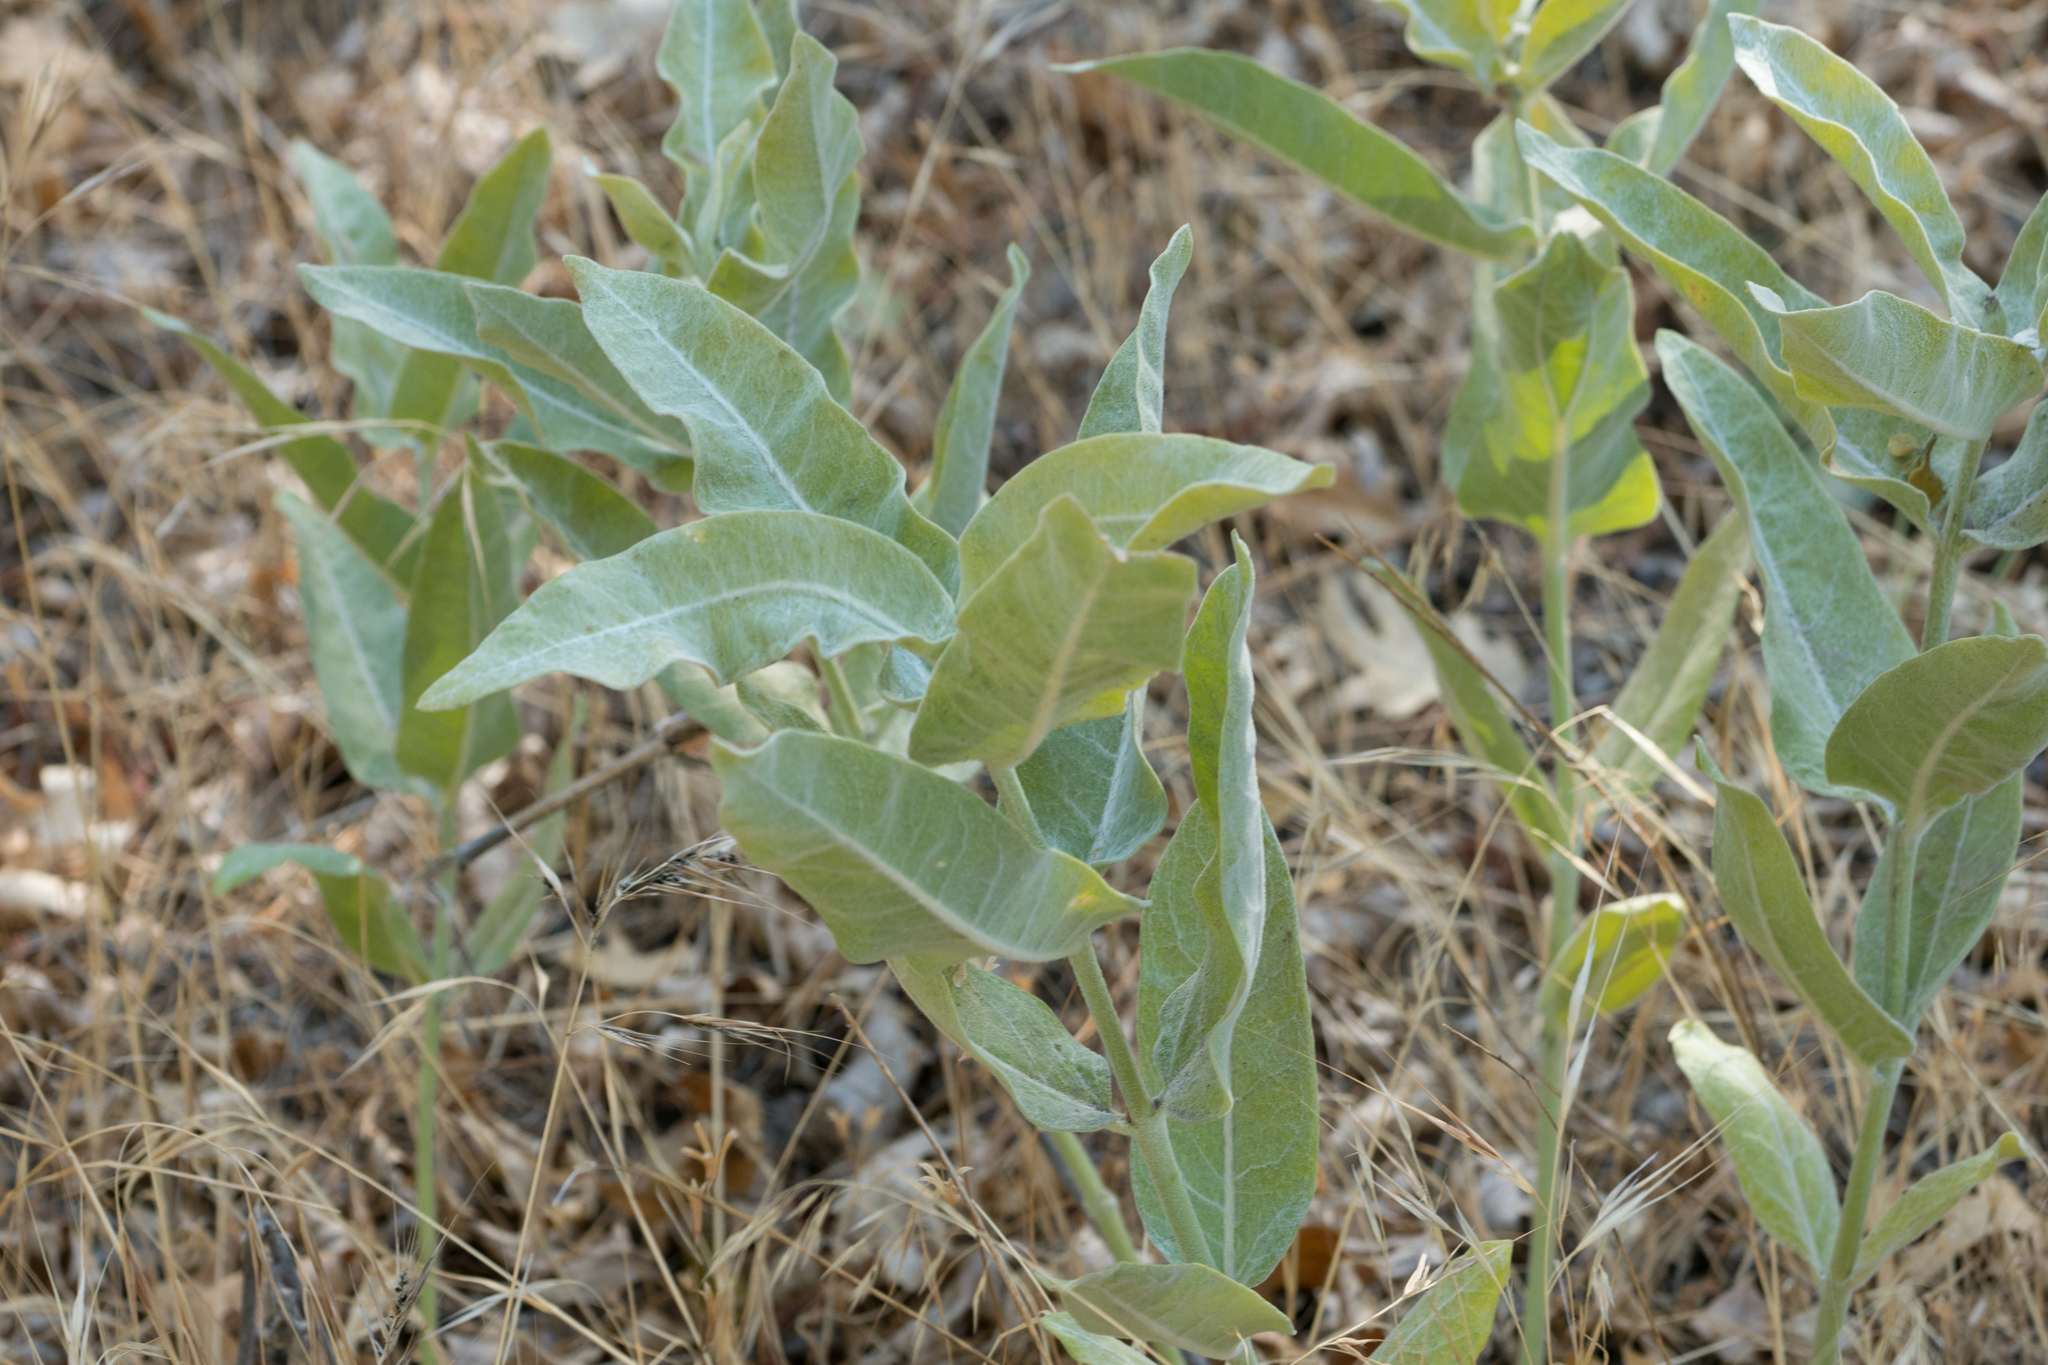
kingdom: Plantae
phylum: Tracheophyta
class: Magnoliopsida
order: Gentianales
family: Apocynaceae
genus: Asclepias
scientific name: Asclepias eriocarpa
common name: Indian milkweed
